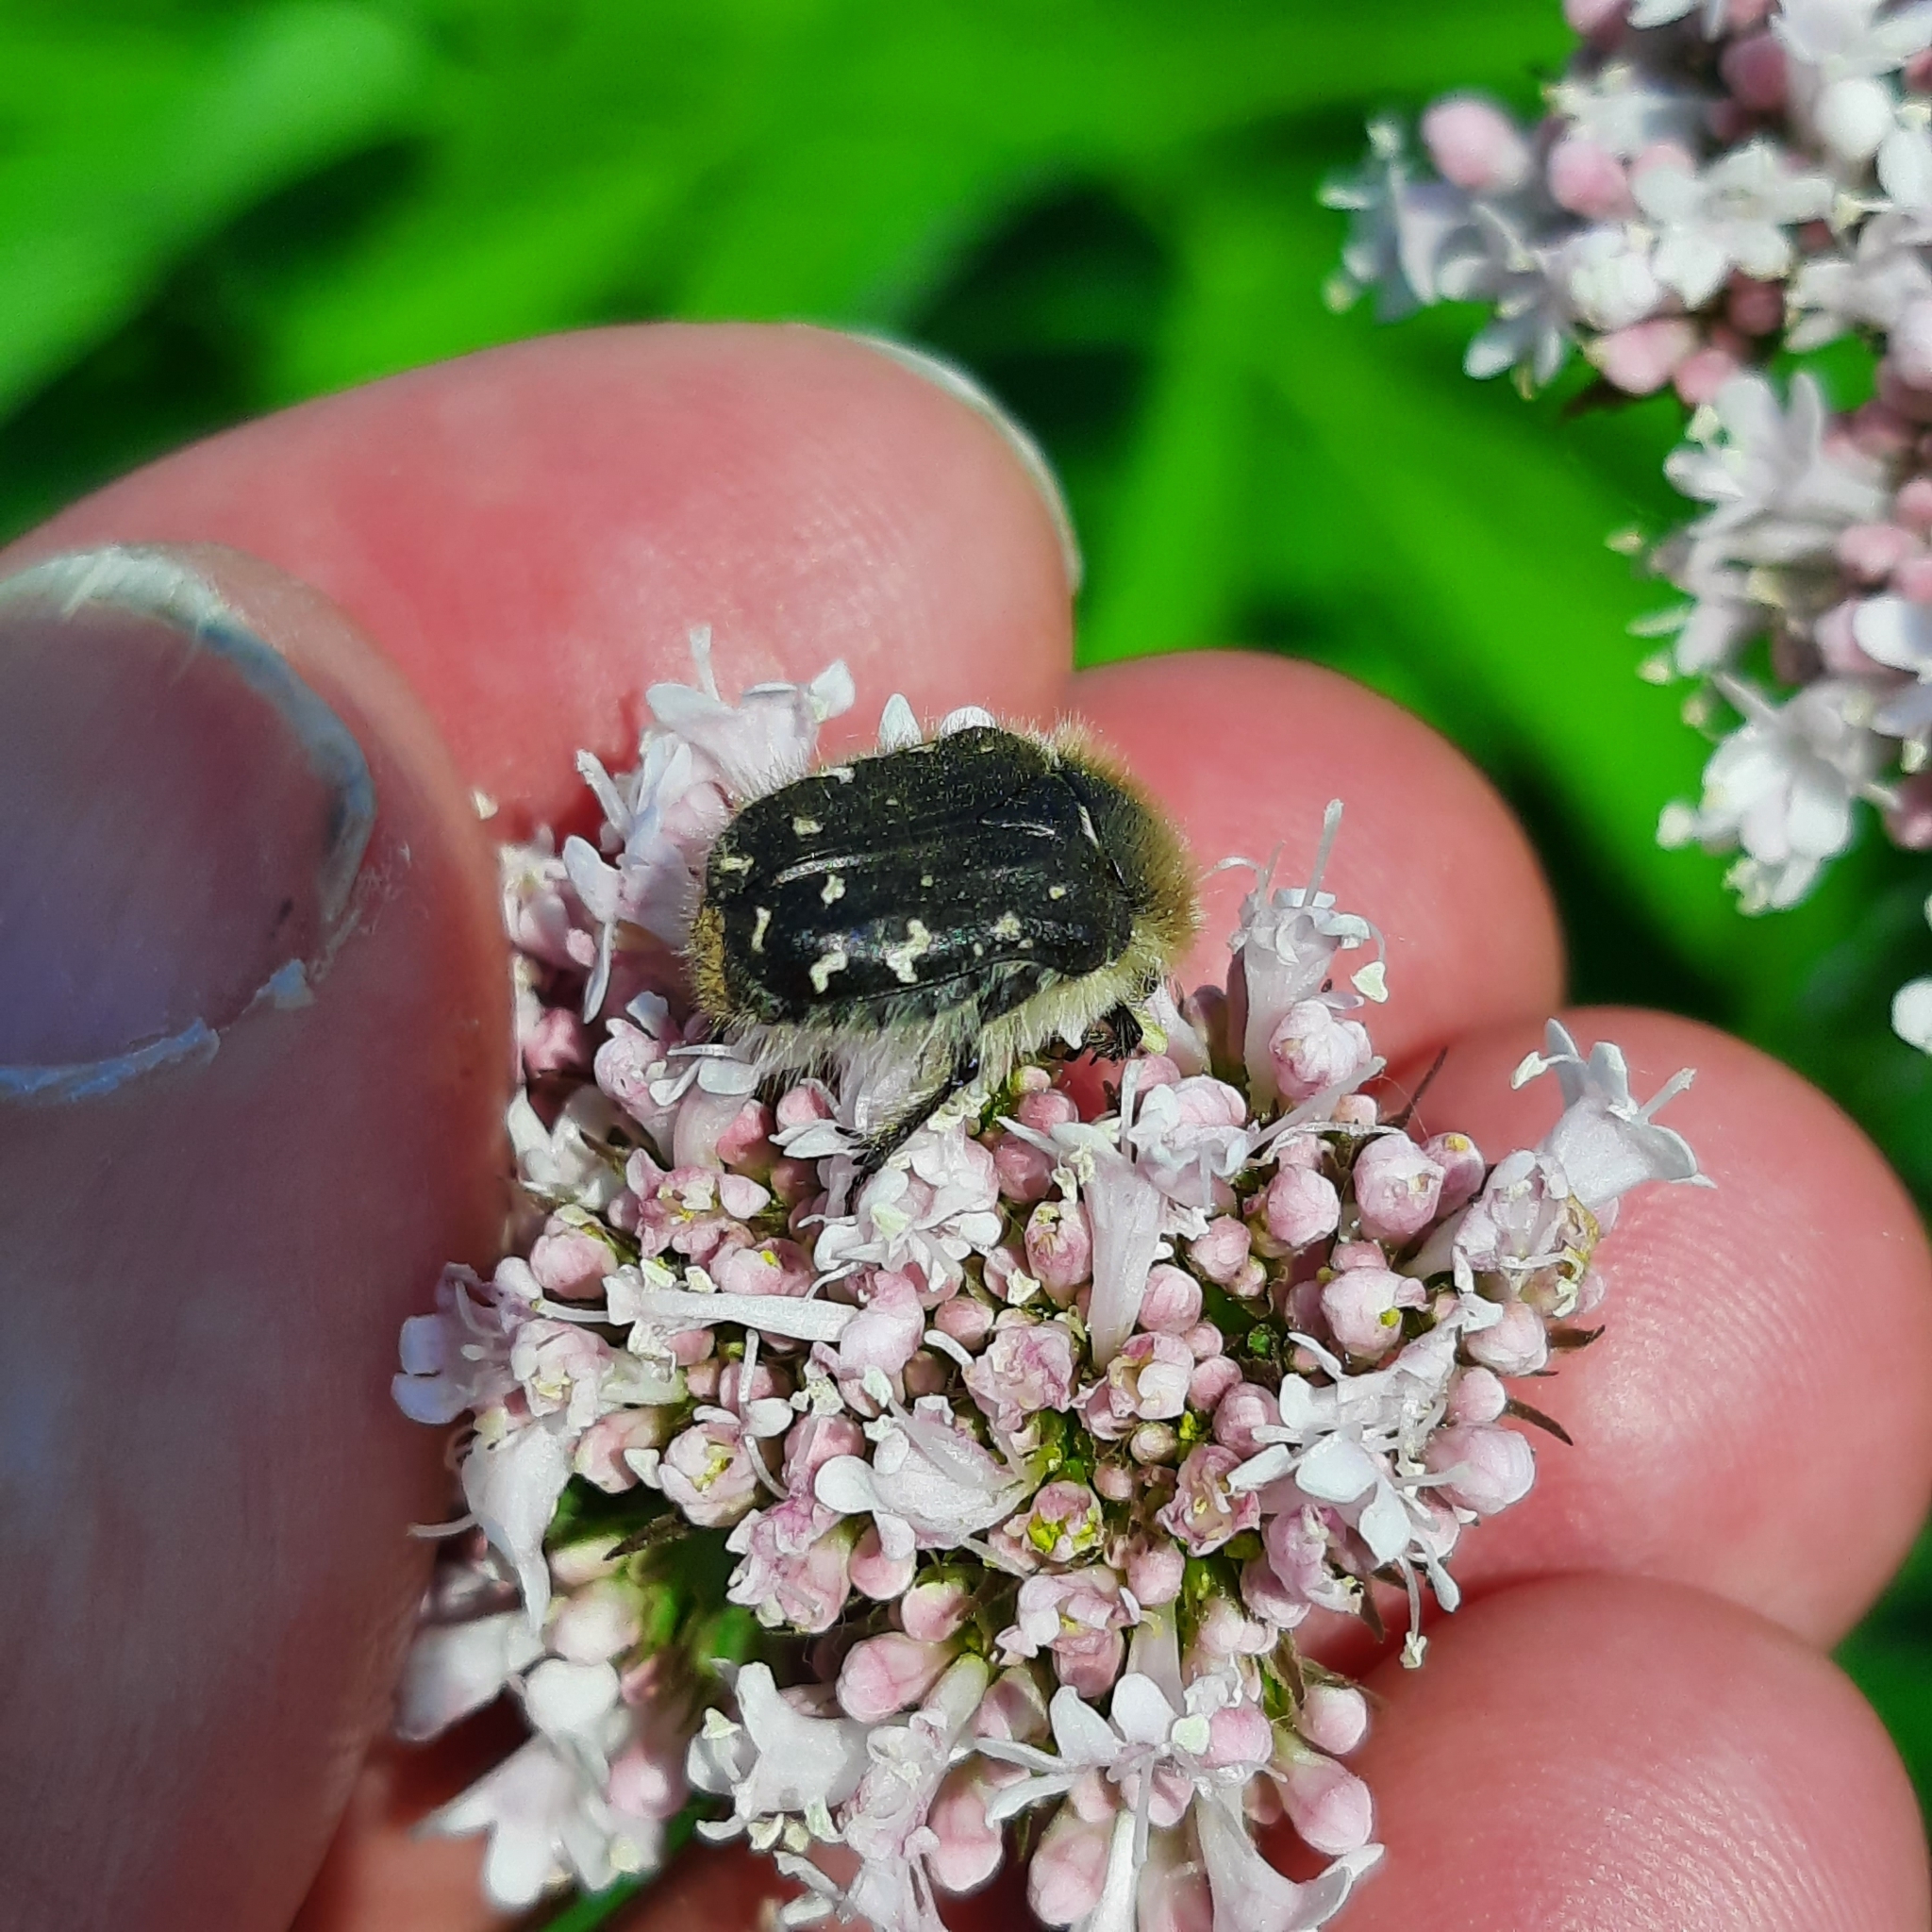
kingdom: Animalia
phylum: Arthropoda
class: Insecta
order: Coleoptera
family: Scarabaeidae
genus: Tropinota
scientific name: Tropinota hirta
